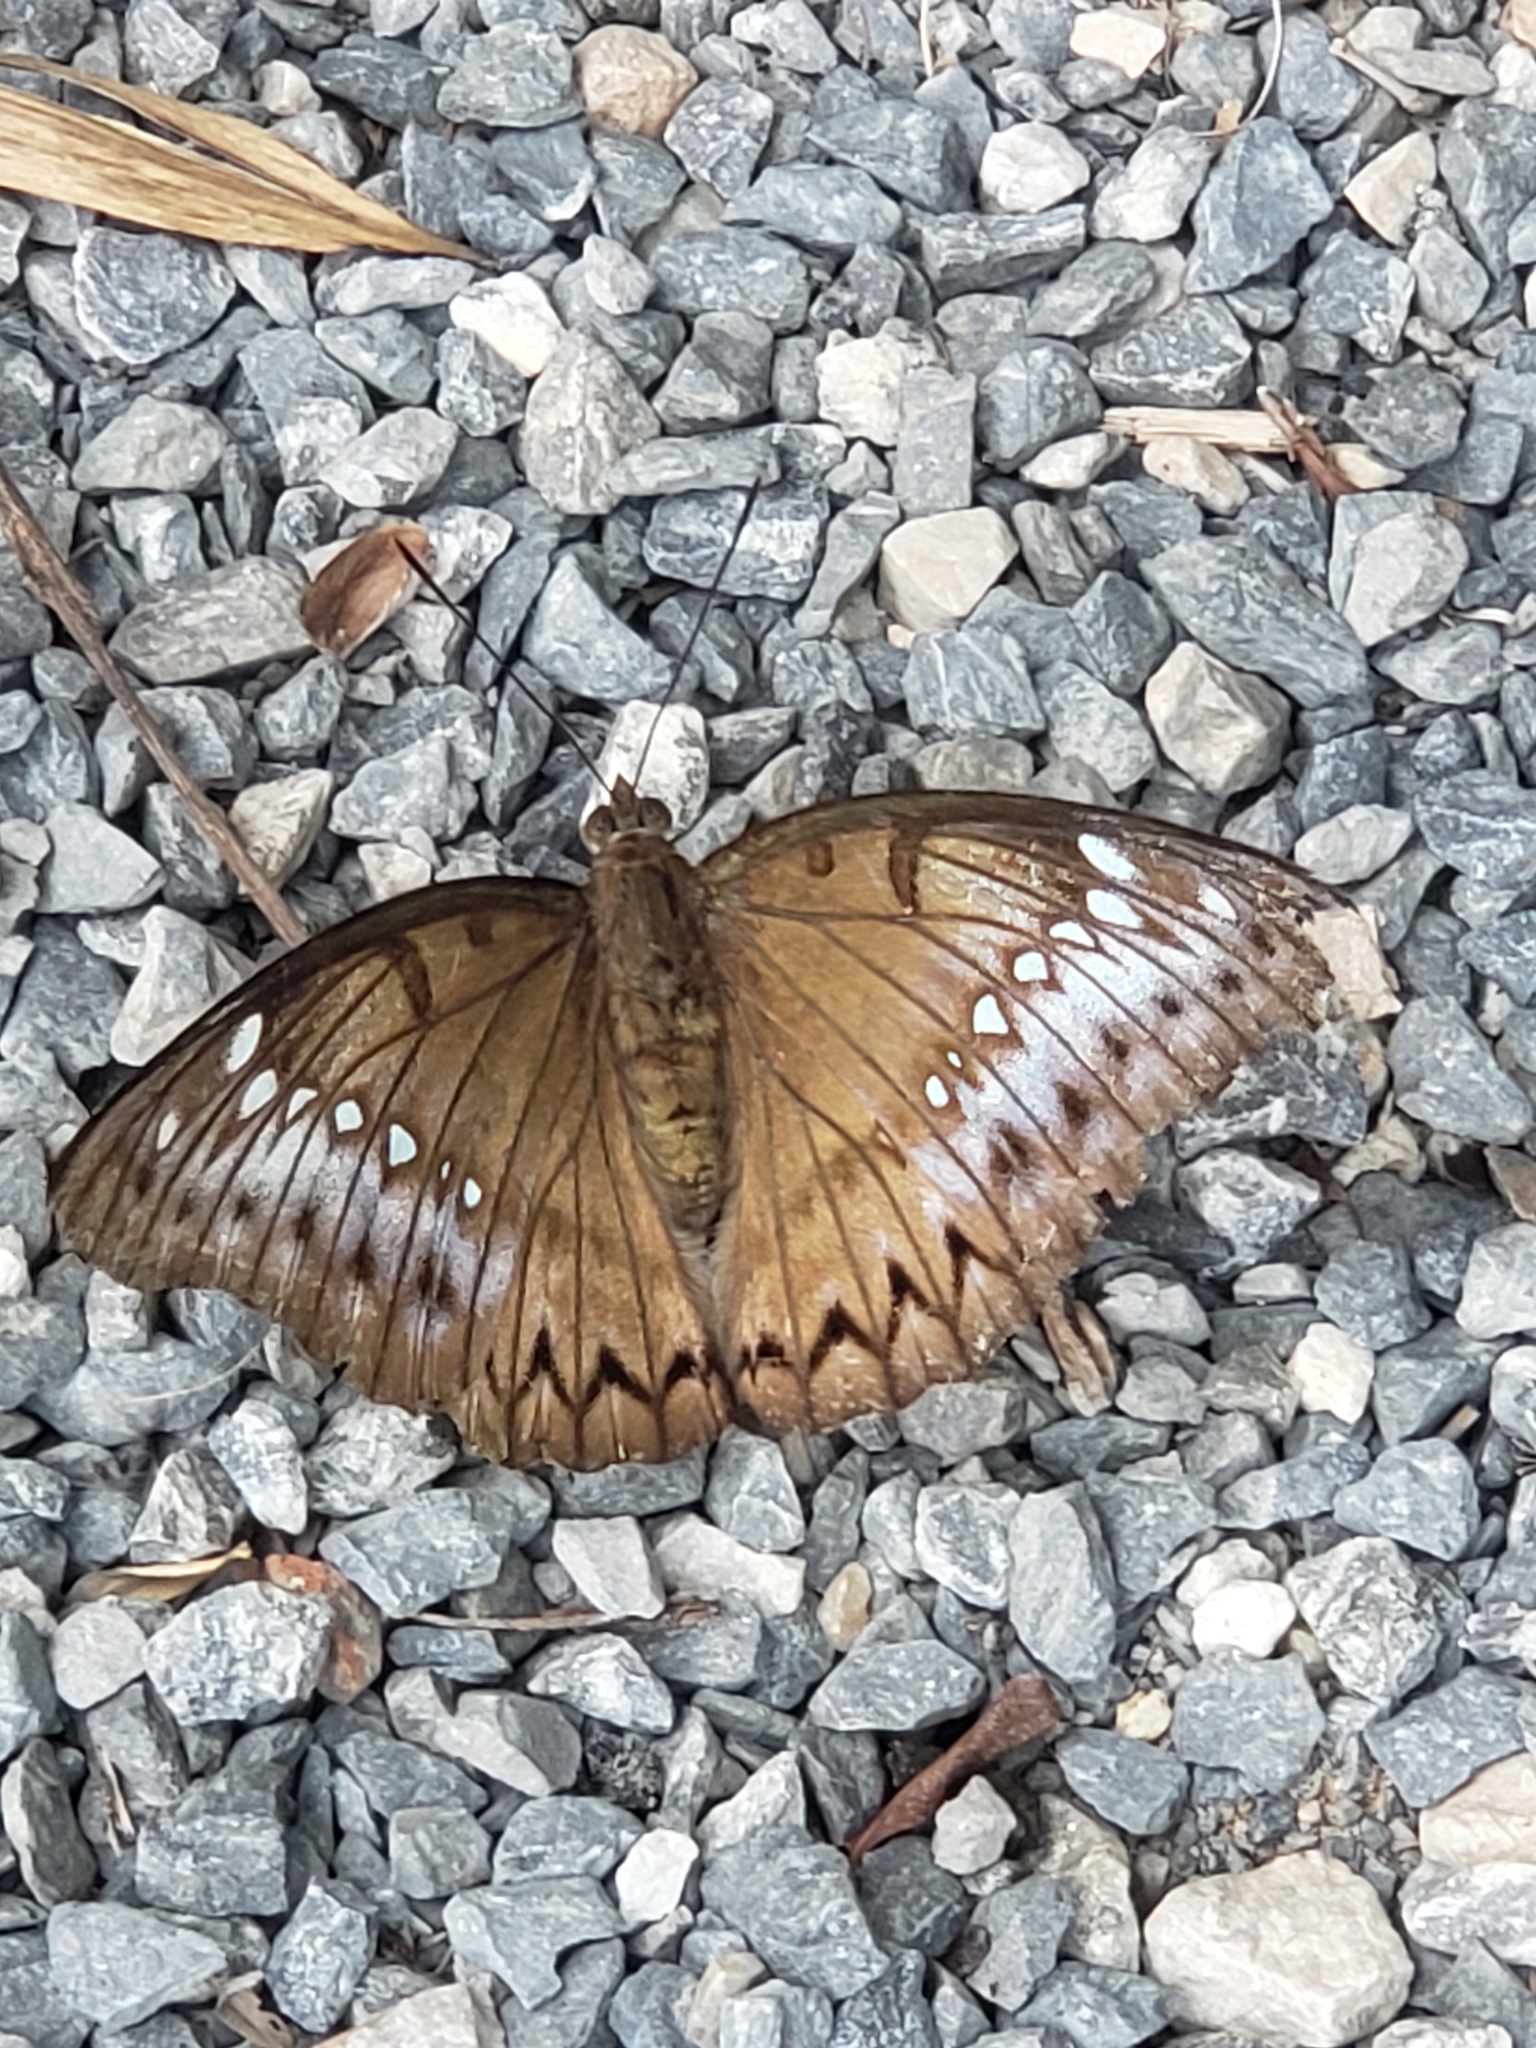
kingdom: Animalia
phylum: Arthropoda
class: Insecta
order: Lepidoptera
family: Nymphalidae
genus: Euthalia
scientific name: Euthalia Bassarona teuta
